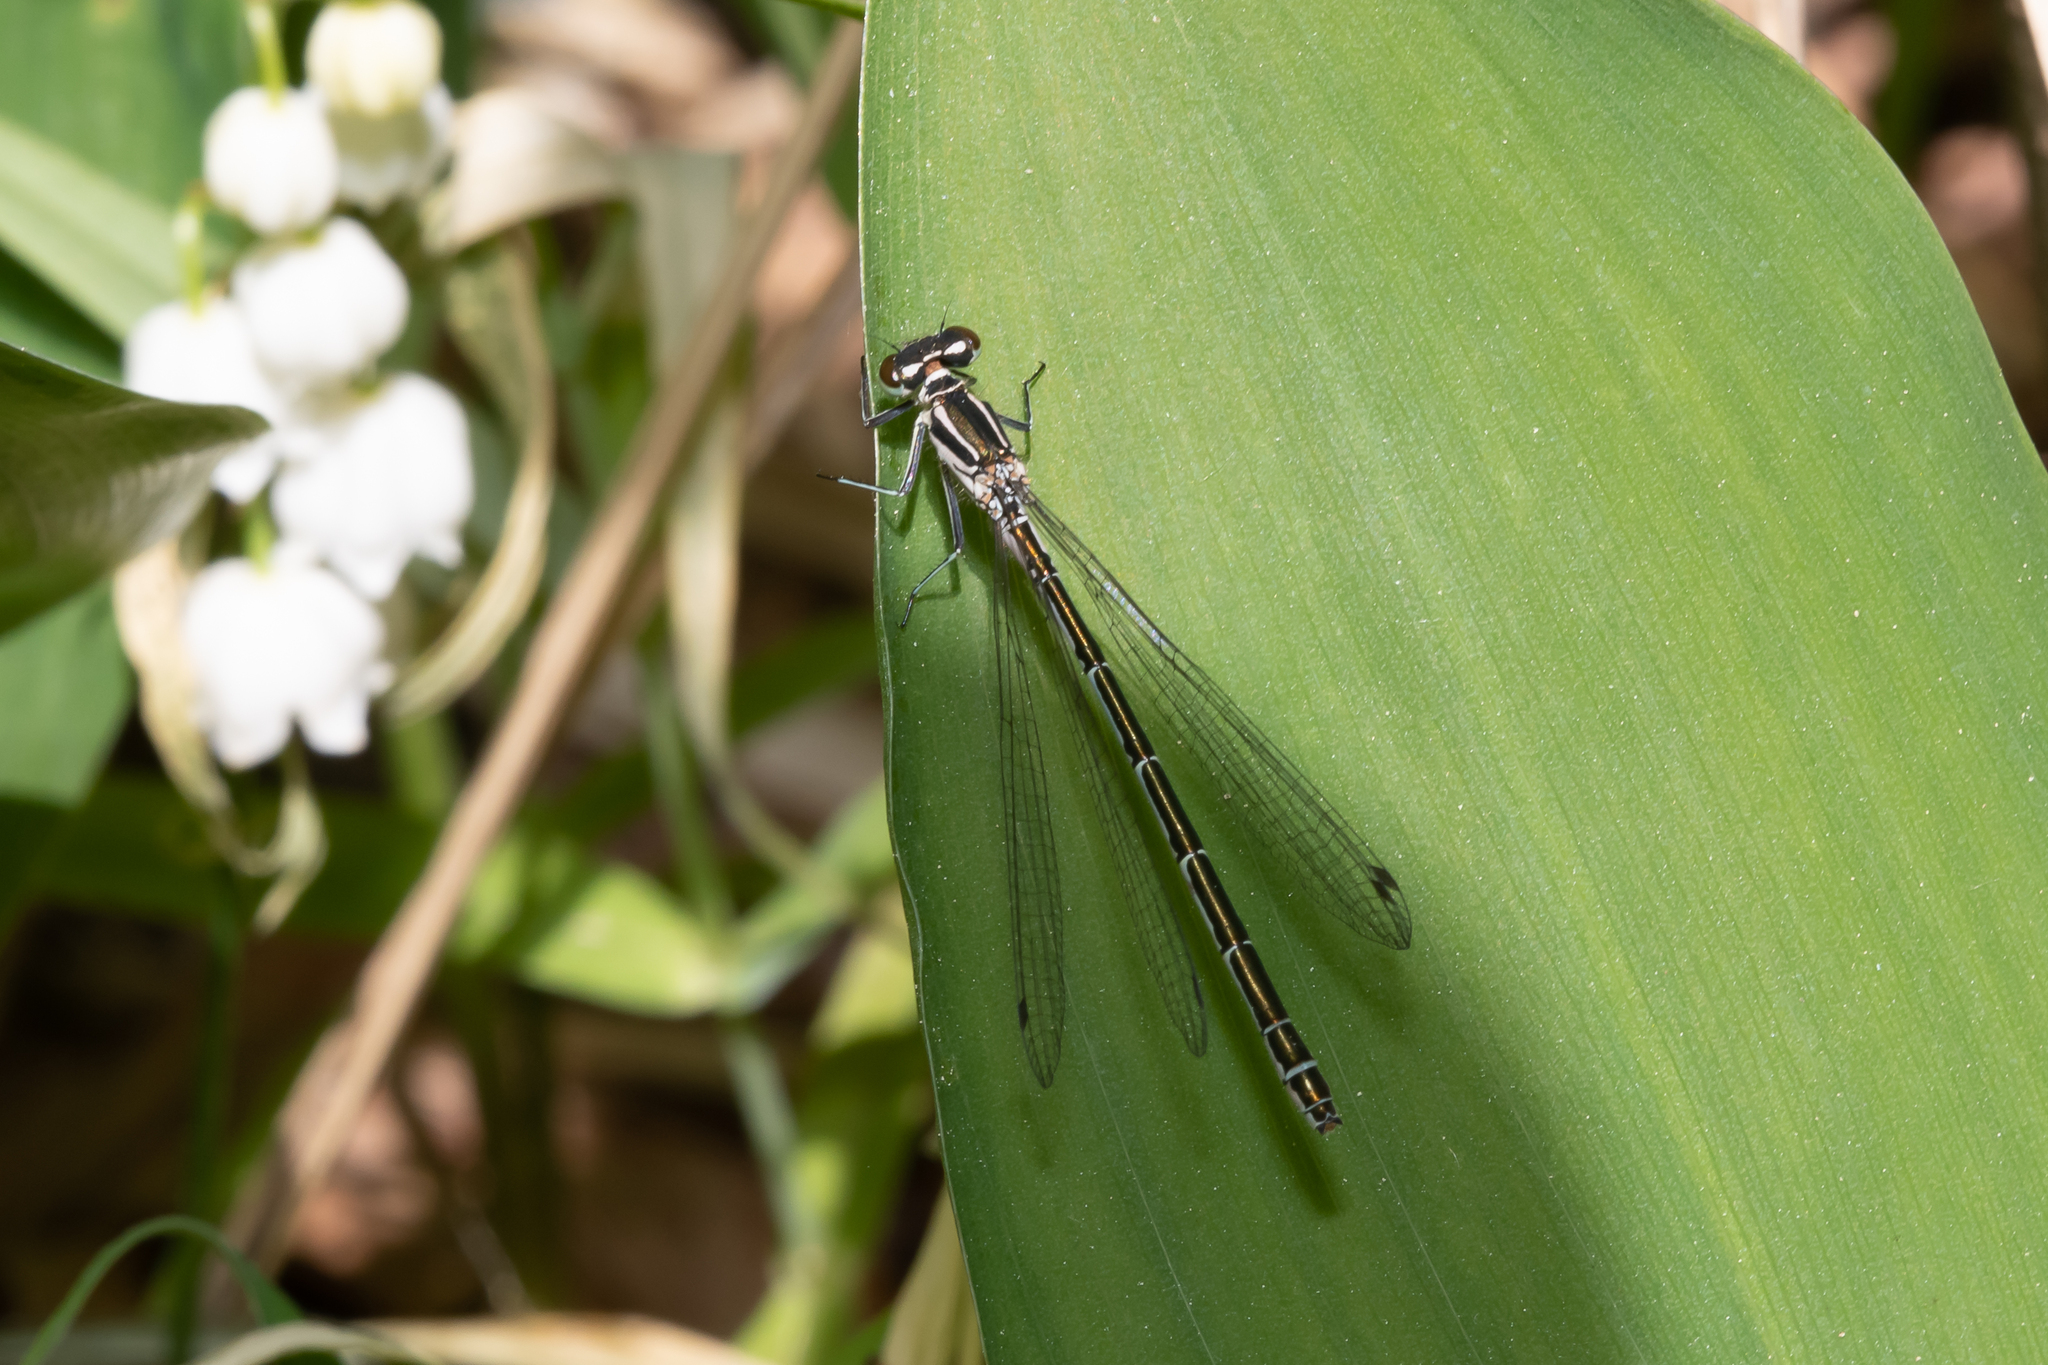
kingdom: Animalia
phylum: Arthropoda
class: Insecta
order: Odonata
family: Coenagrionidae
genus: Coenagrion
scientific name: Coenagrion puella
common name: Azure damselfly
